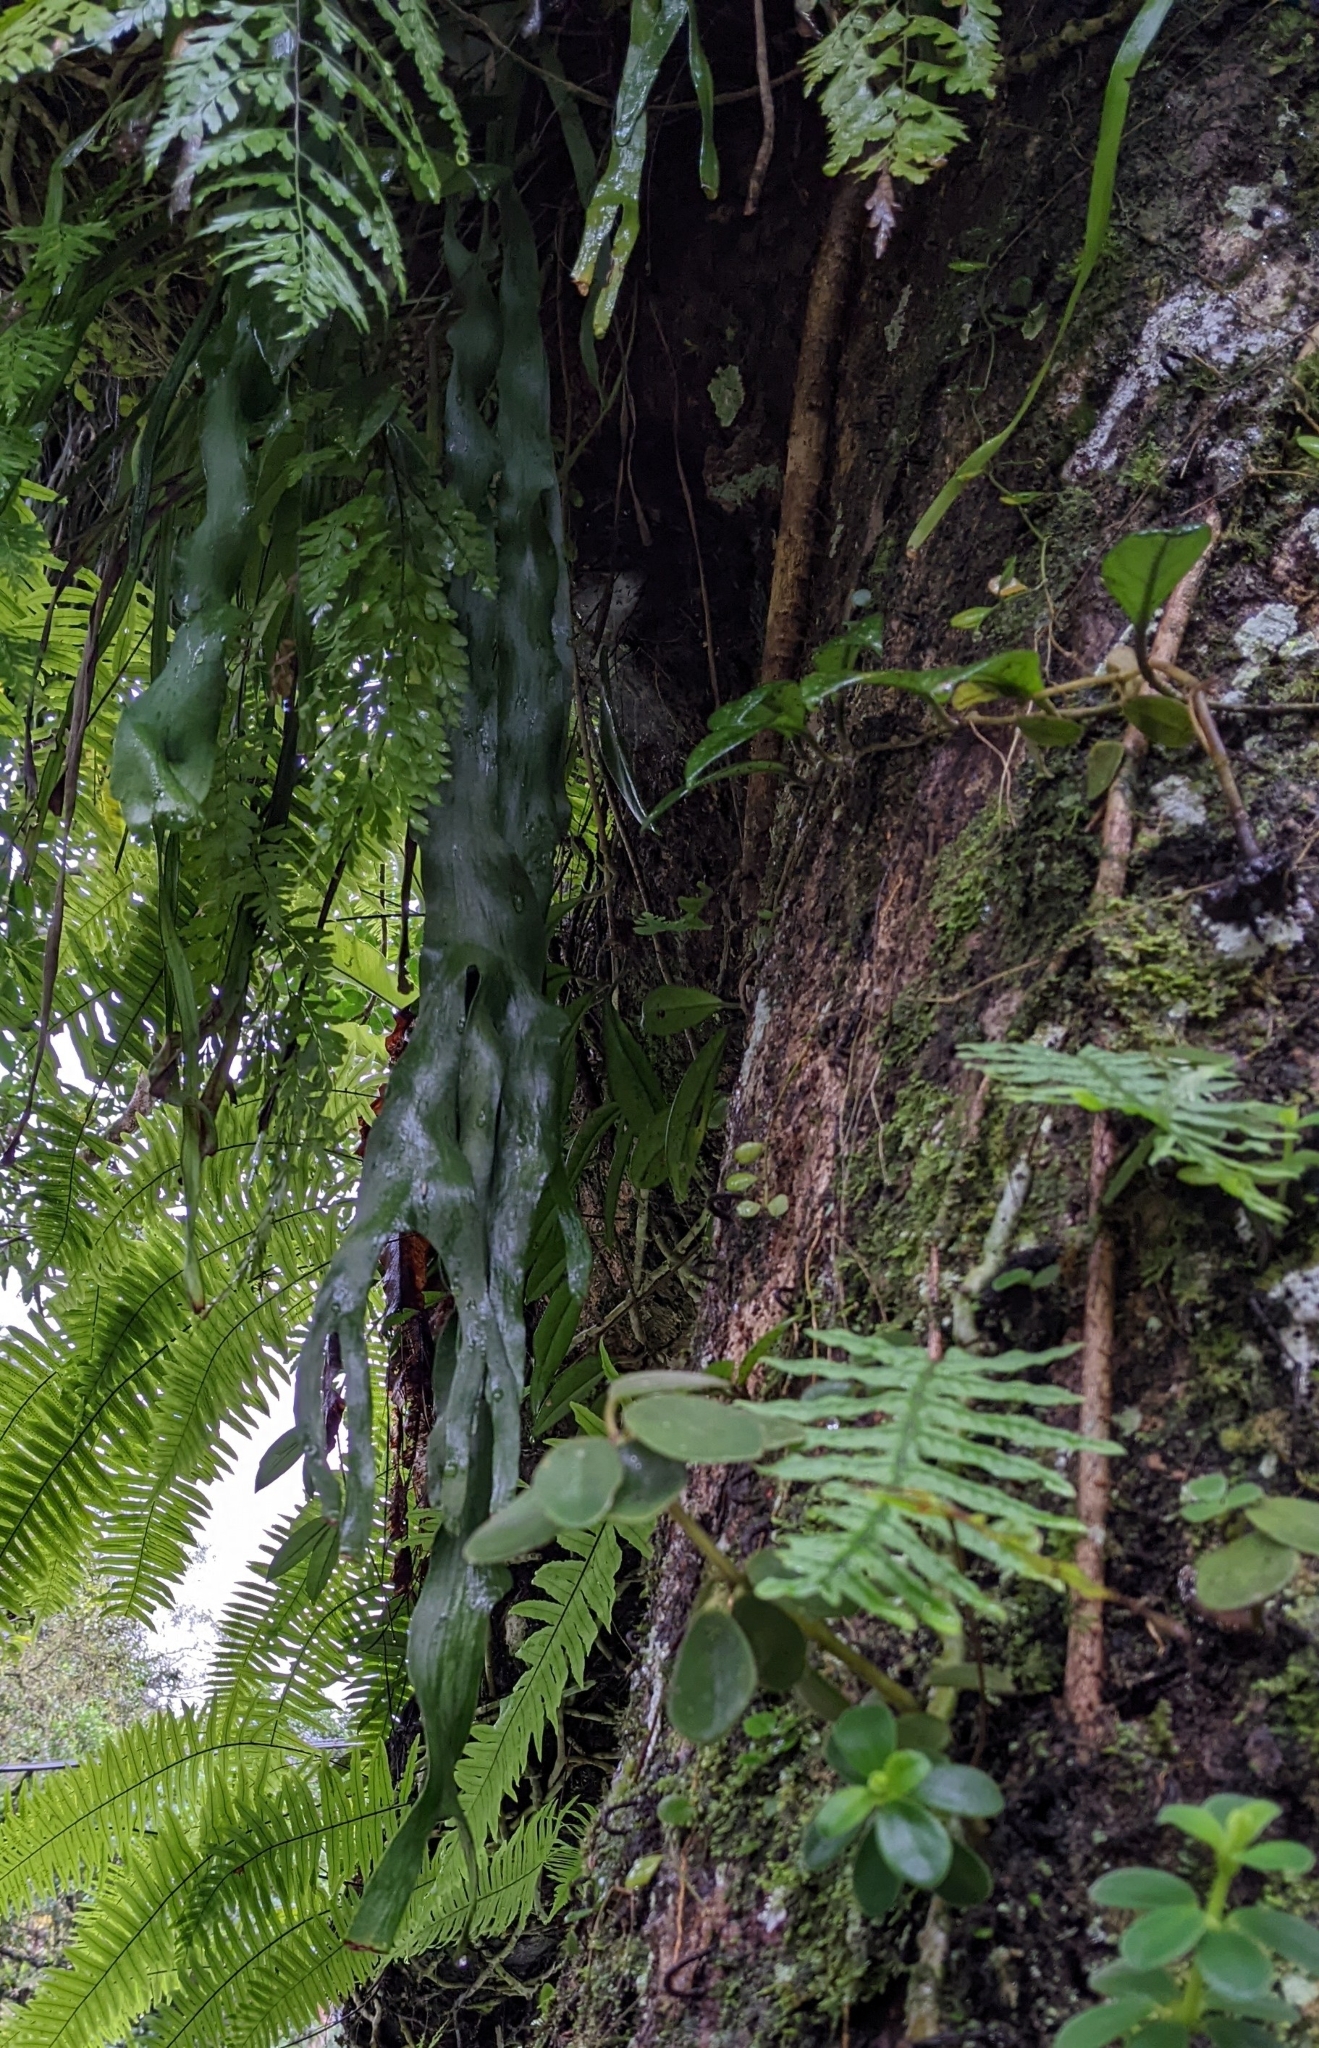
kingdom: Plantae
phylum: Tracheophyta
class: Polypodiopsida
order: Ophioglossales
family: Ophioglossaceae
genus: Ophioderma
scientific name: Ophioderma pendulum
